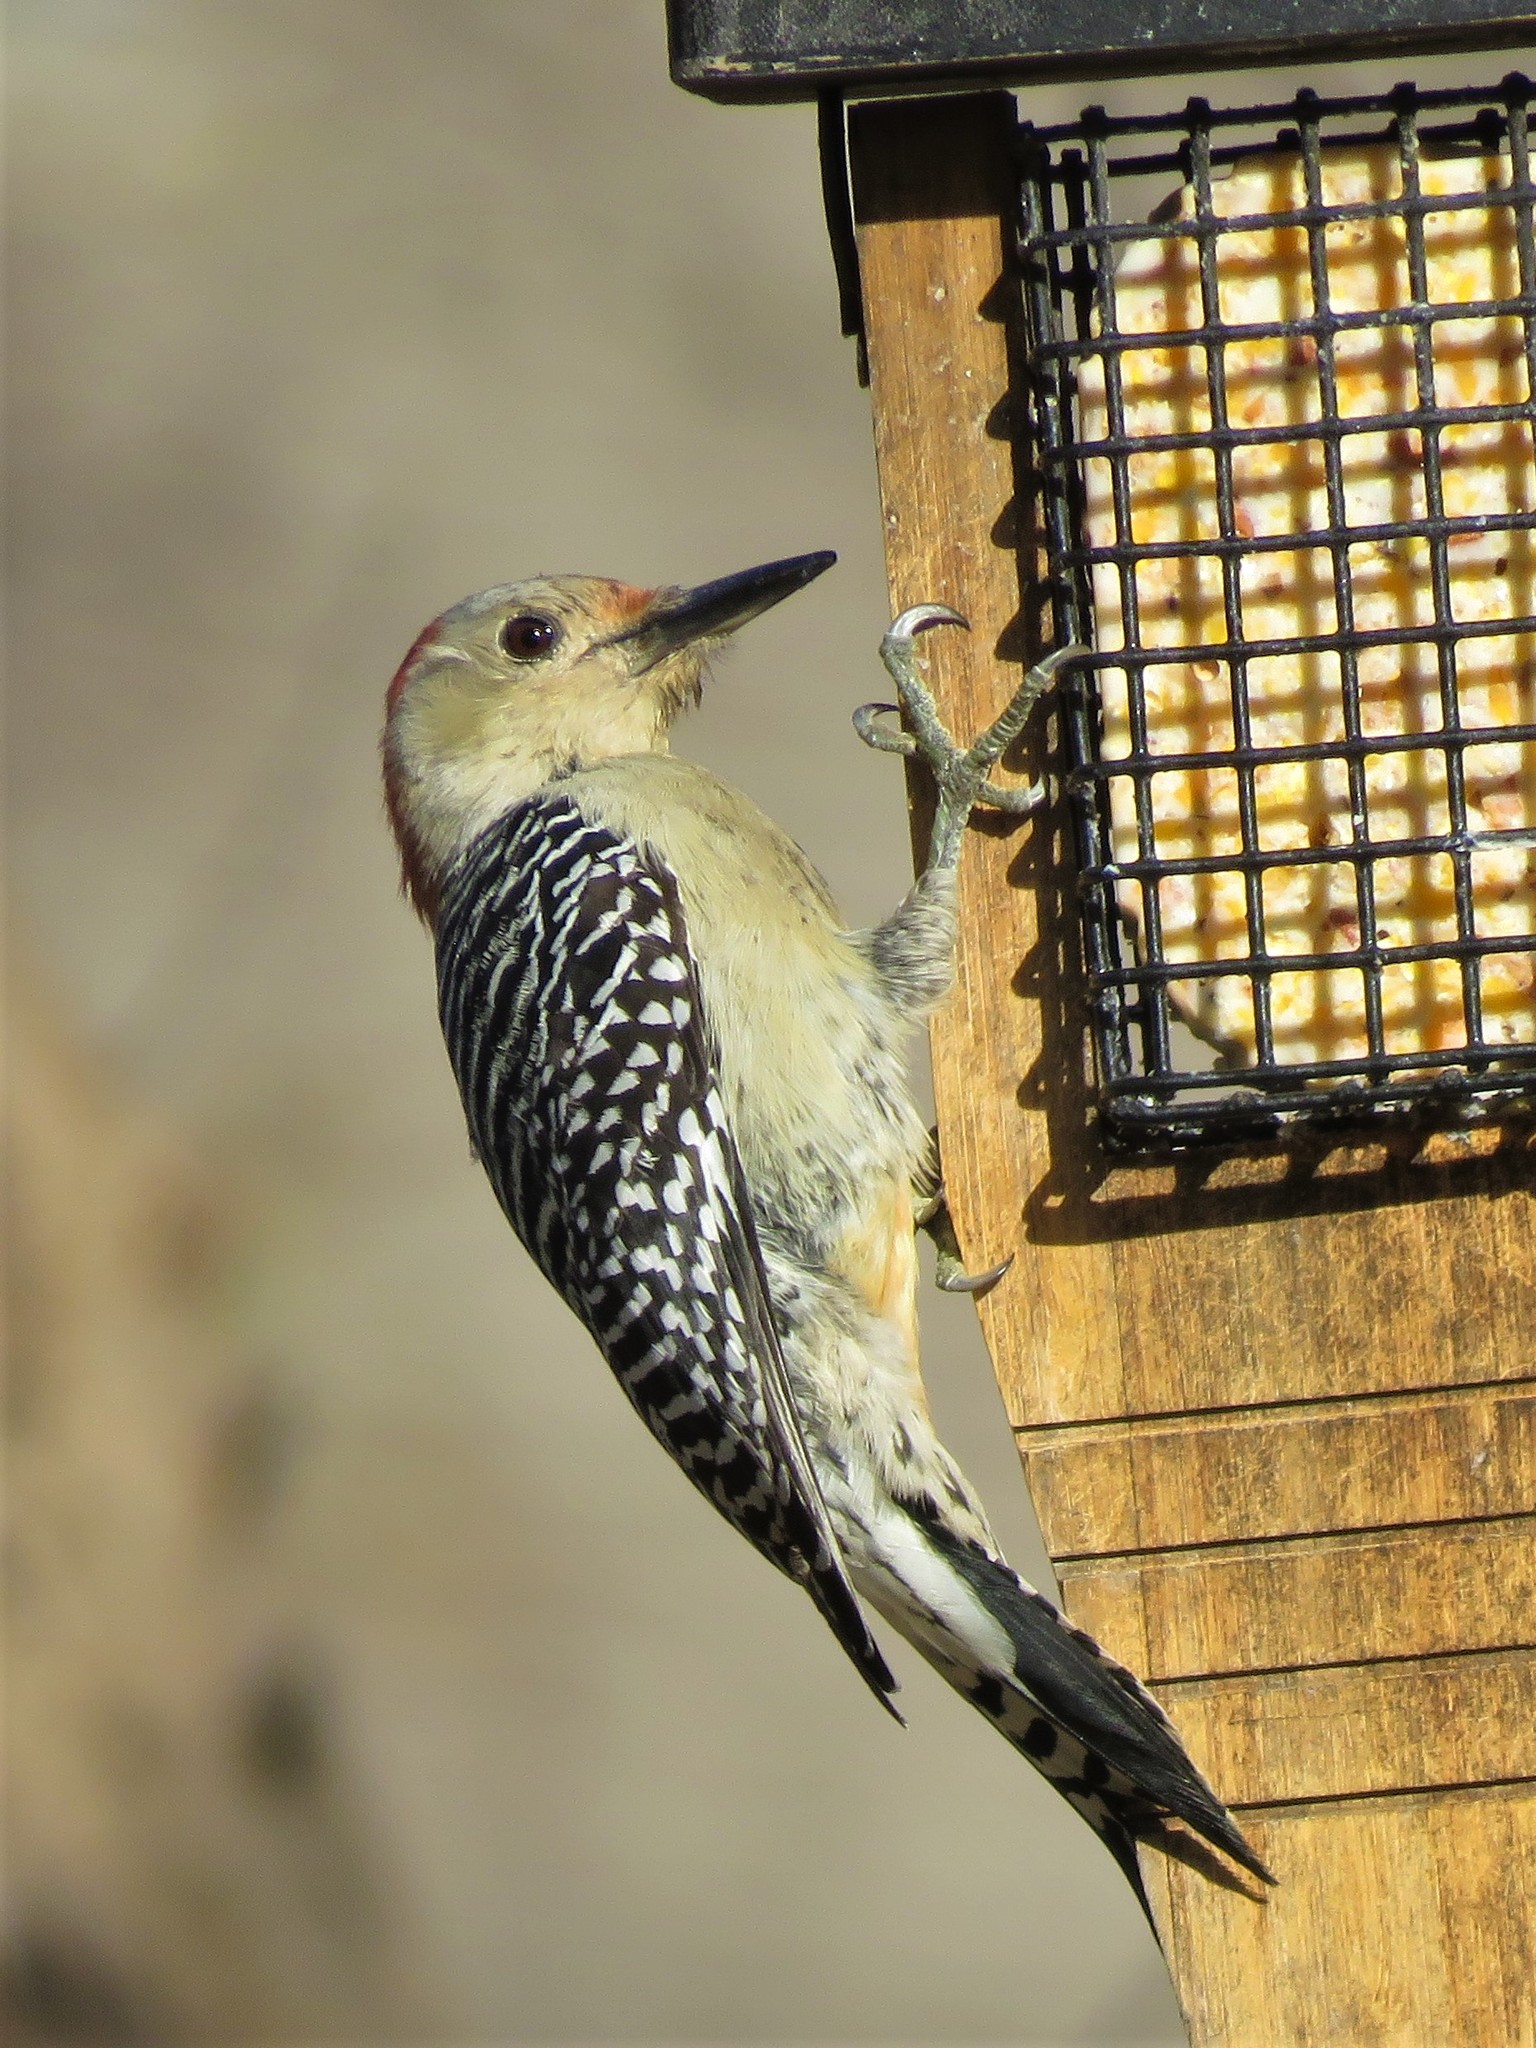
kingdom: Animalia
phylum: Chordata
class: Aves
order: Piciformes
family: Picidae
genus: Melanerpes
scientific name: Melanerpes carolinus
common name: Red-bellied woodpecker
